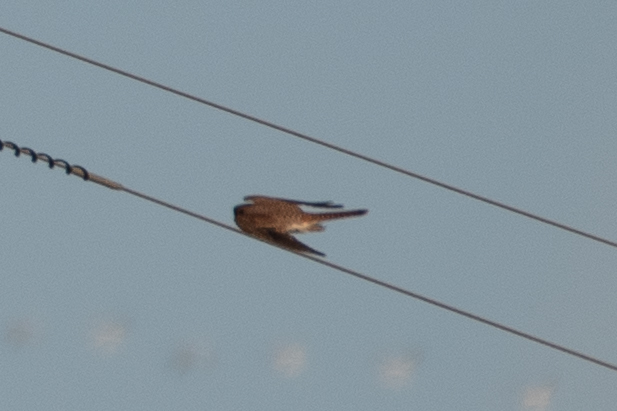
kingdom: Animalia
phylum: Chordata
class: Aves
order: Falconiformes
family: Falconidae
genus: Falco
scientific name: Falco sparverius
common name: American kestrel
